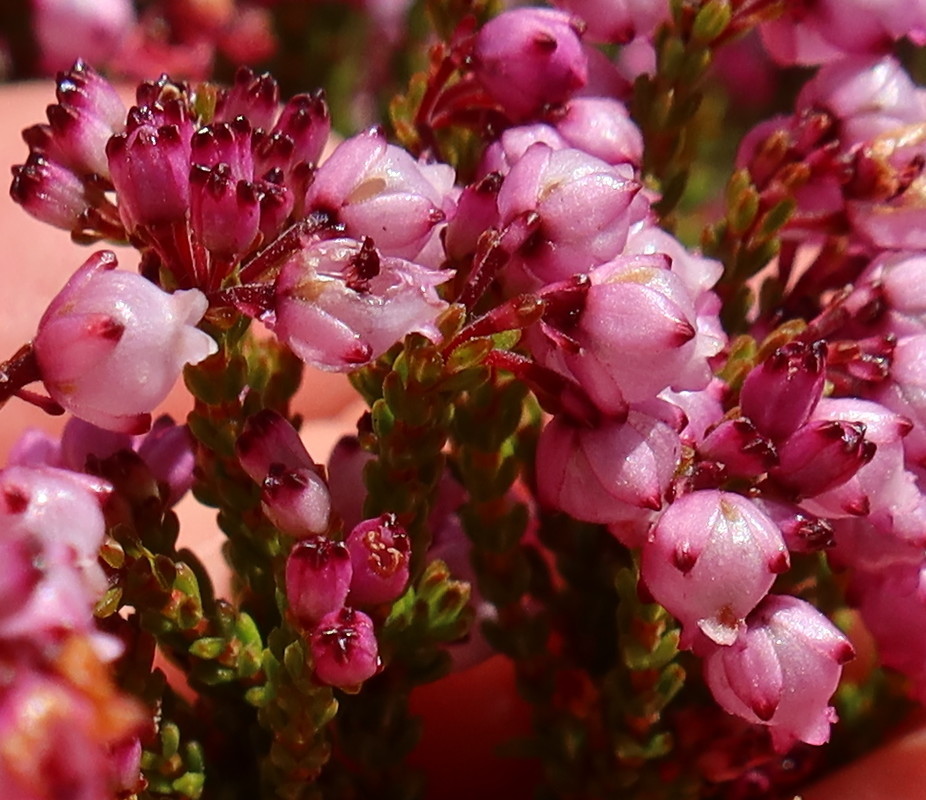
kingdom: Plantae
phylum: Tracheophyta
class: Magnoliopsida
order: Ericales
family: Ericaceae
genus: Erica
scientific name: Erica ferrea
